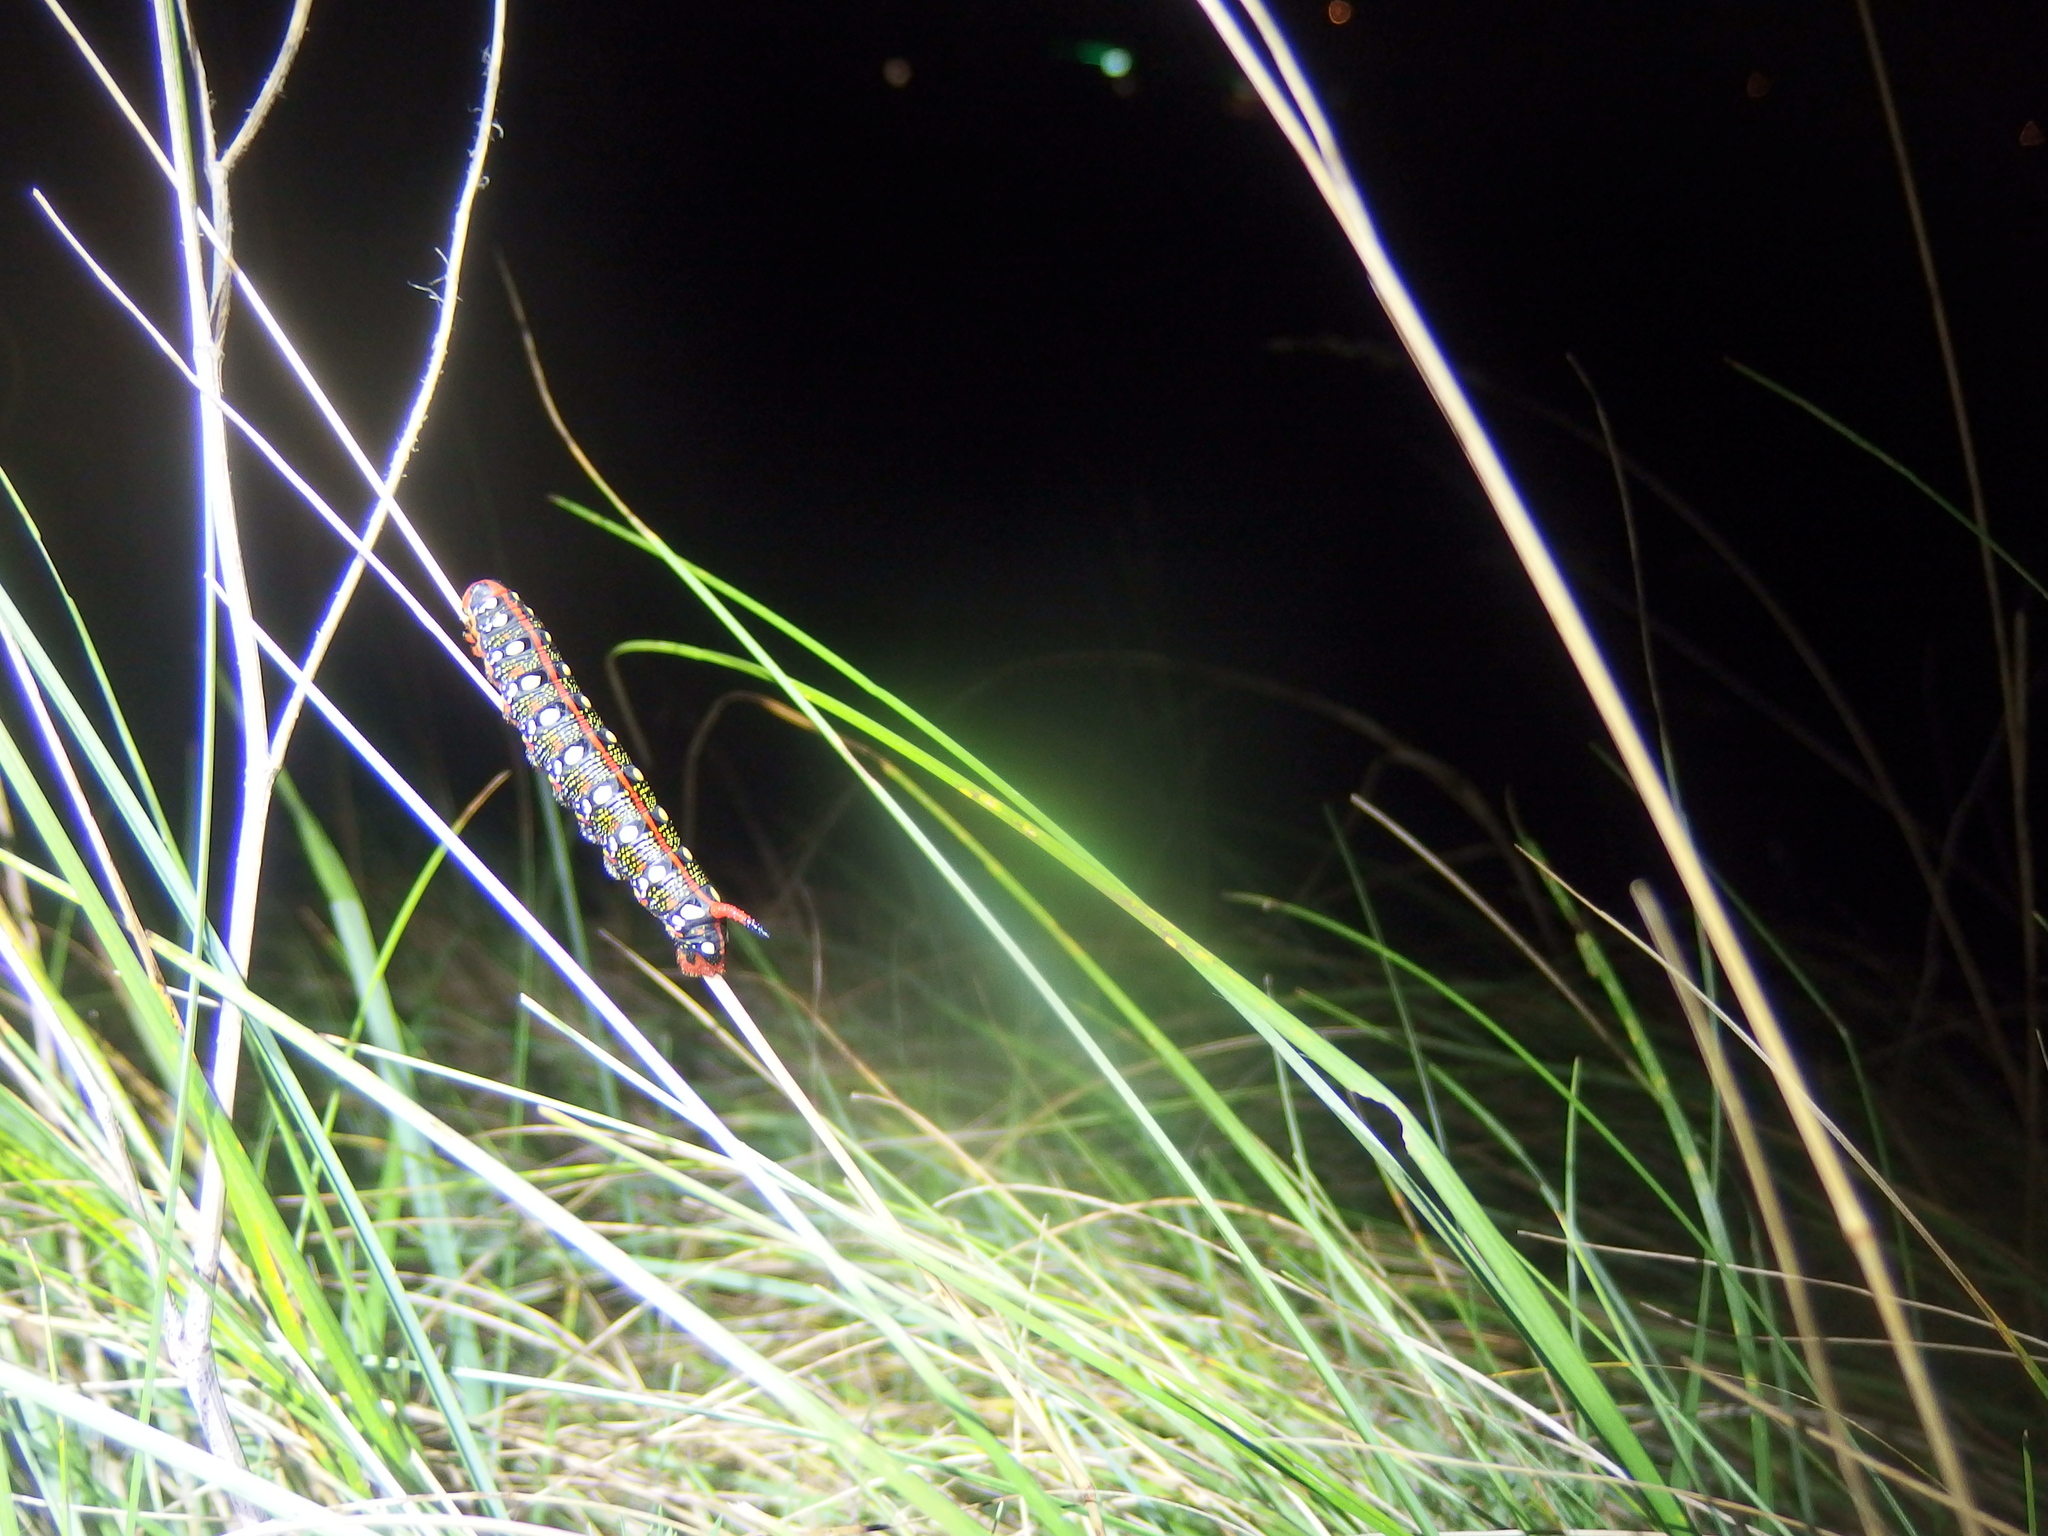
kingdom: Animalia
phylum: Arthropoda
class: Insecta
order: Lepidoptera
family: Sphingidae
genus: Hyles
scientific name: Hyles euphorbiae
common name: Spurge hawk-moth
